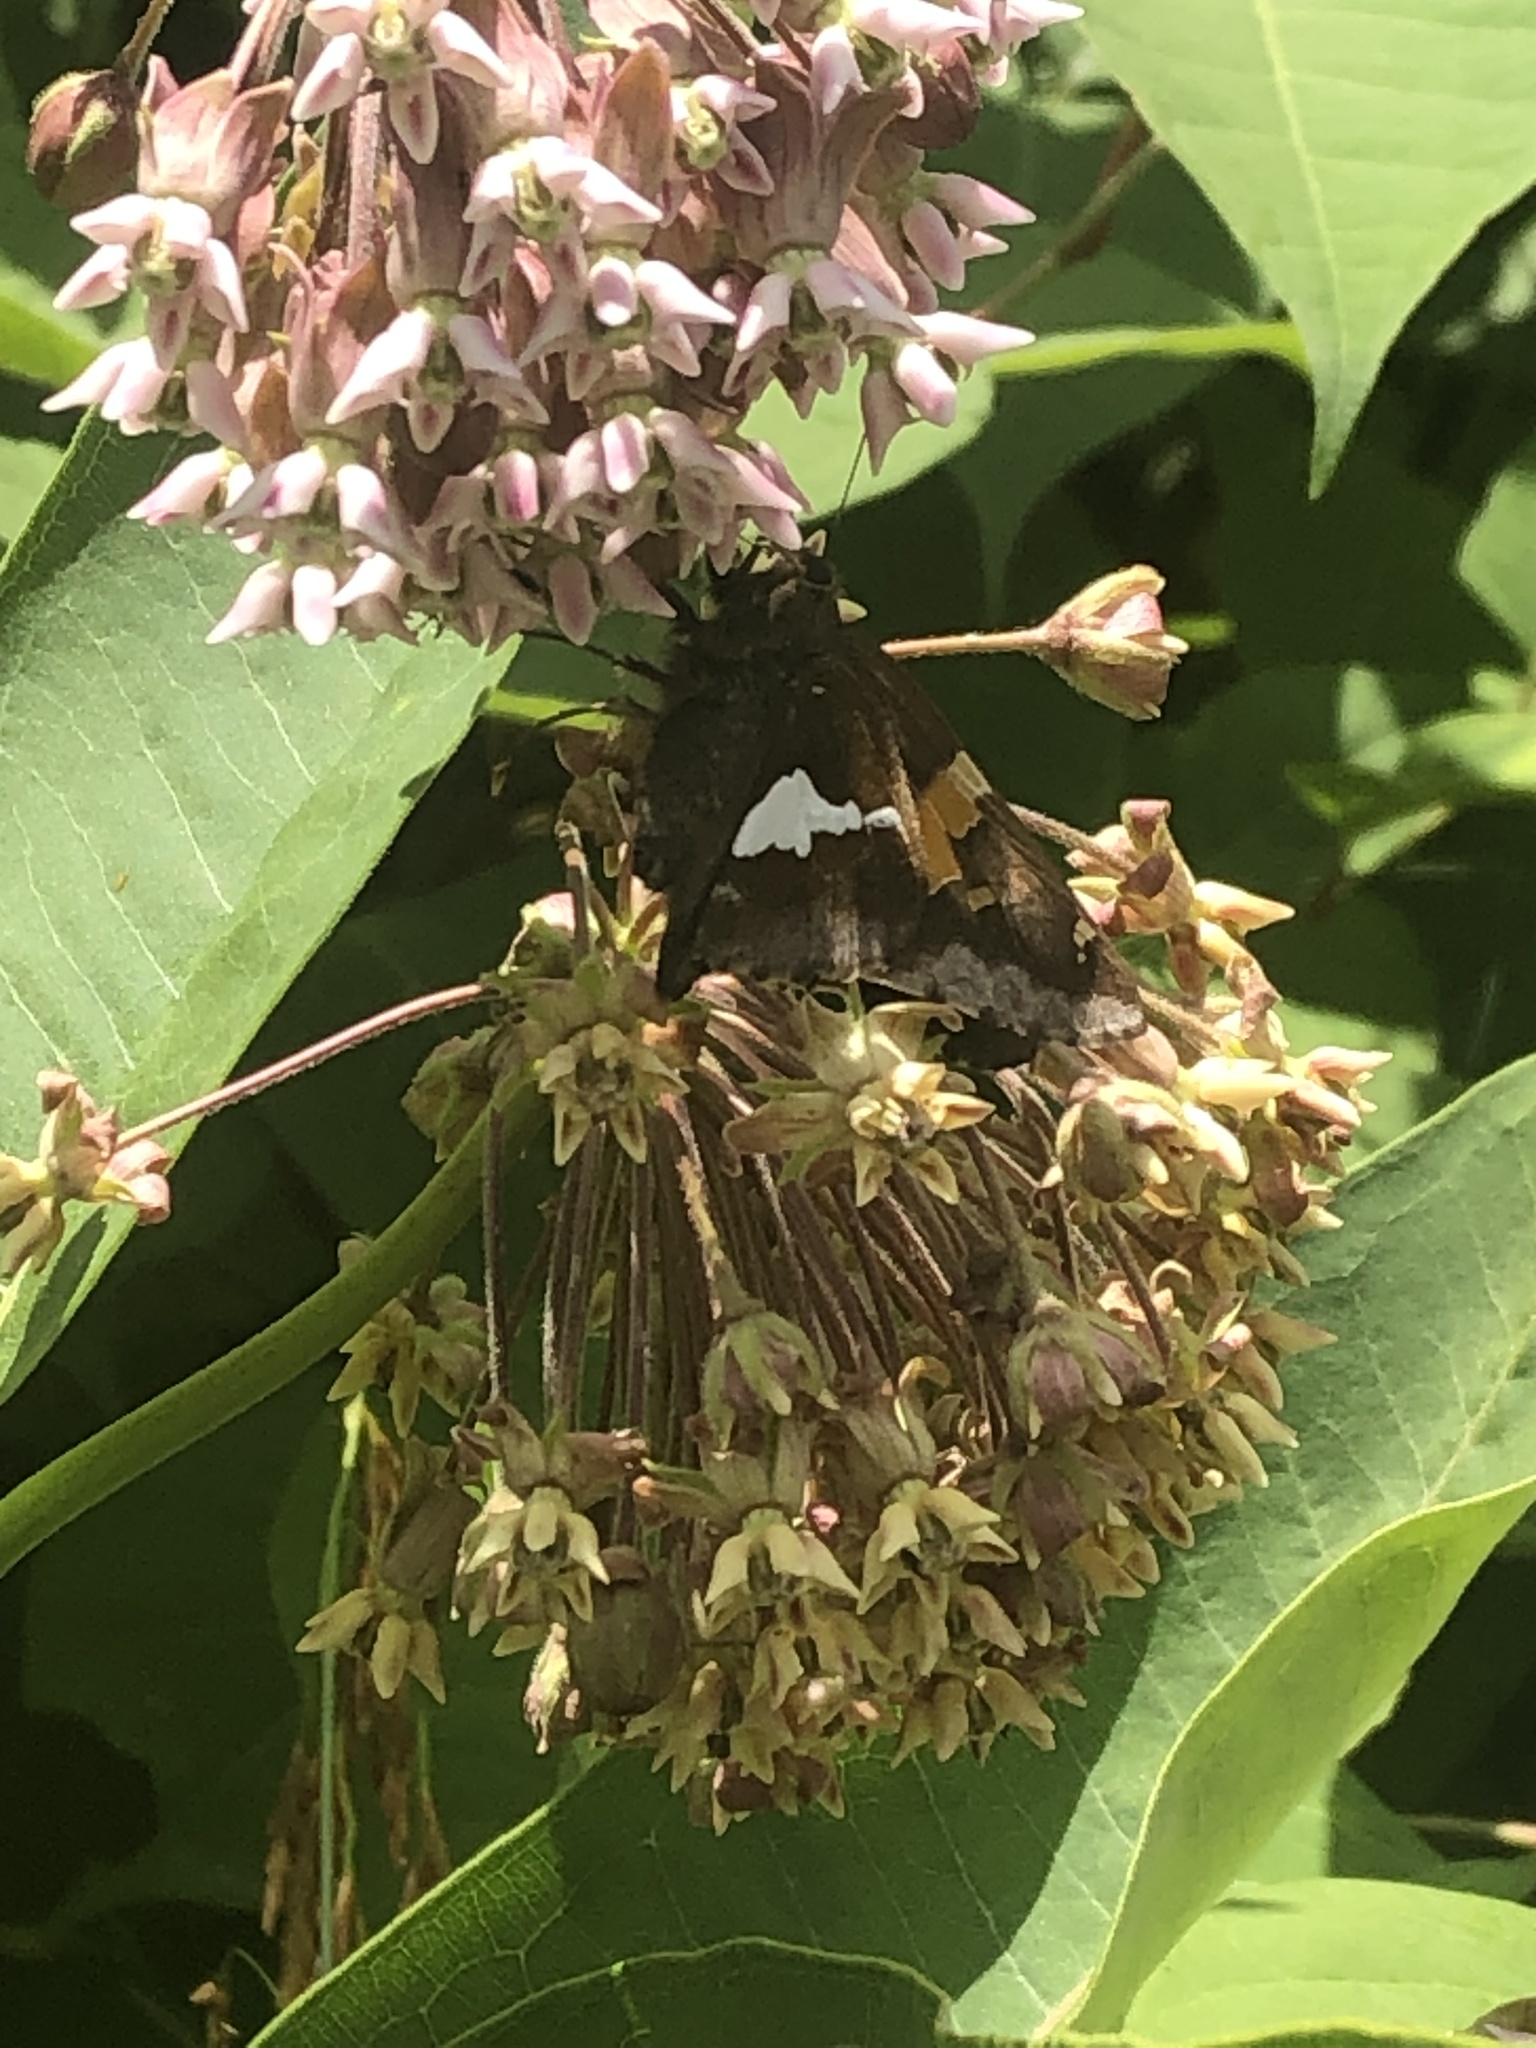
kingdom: Animalia
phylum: Arthropoda
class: Insecta
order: Lepidoptera
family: Hesperiidae
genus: Epargyreus
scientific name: Epargyreus clarus
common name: Silver-spotted skipper
